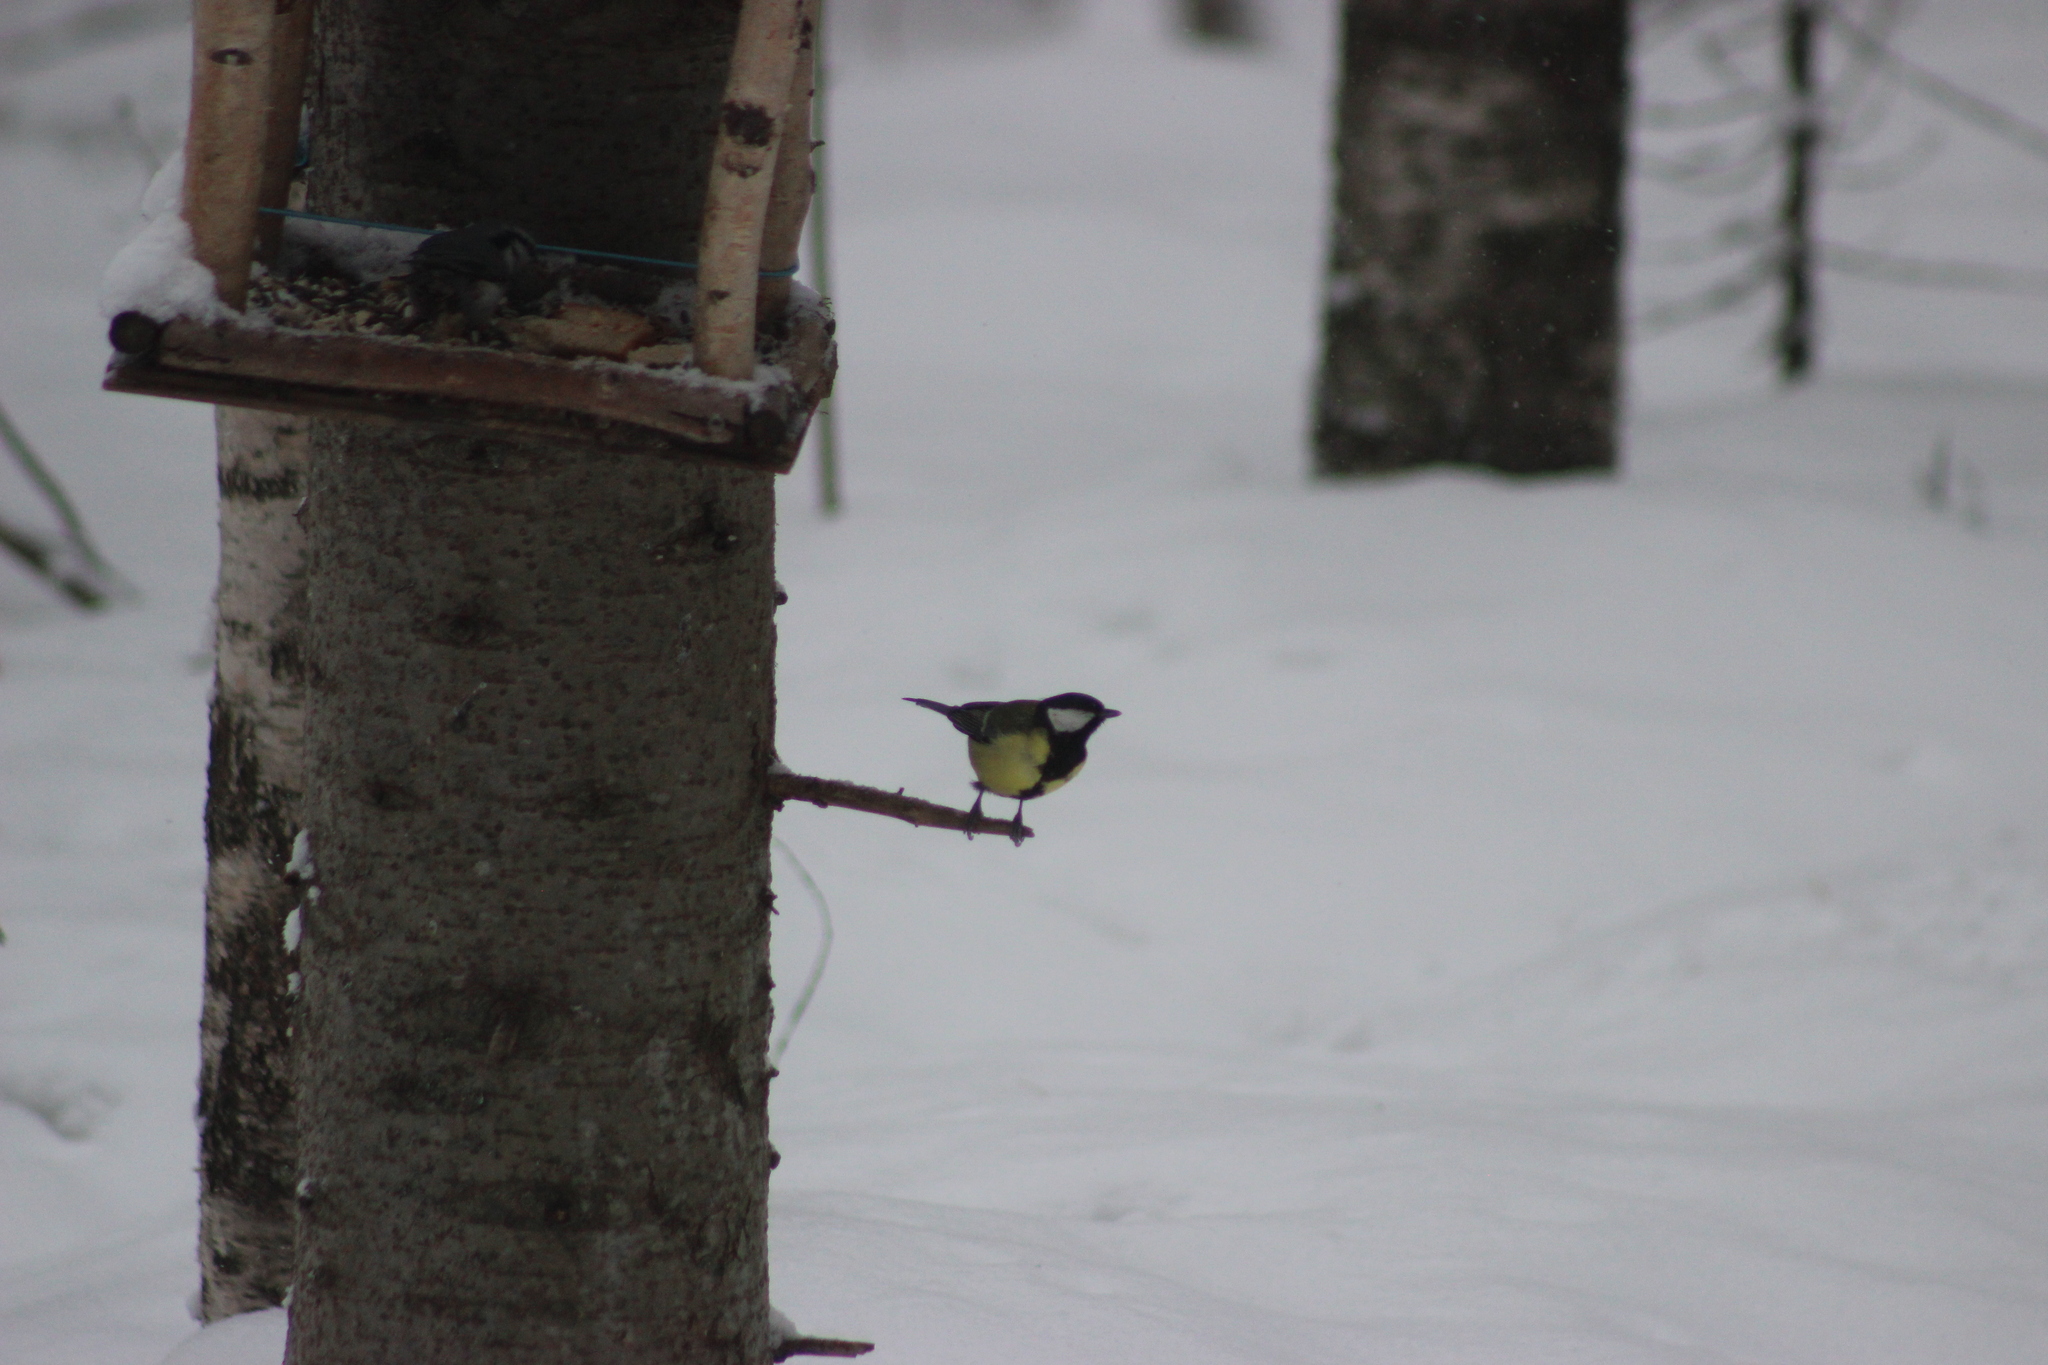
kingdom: Animalia
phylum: Chordata
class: Aves
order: Passeriformes
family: Paridae
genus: Parus
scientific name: Parus major
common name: Great tit
